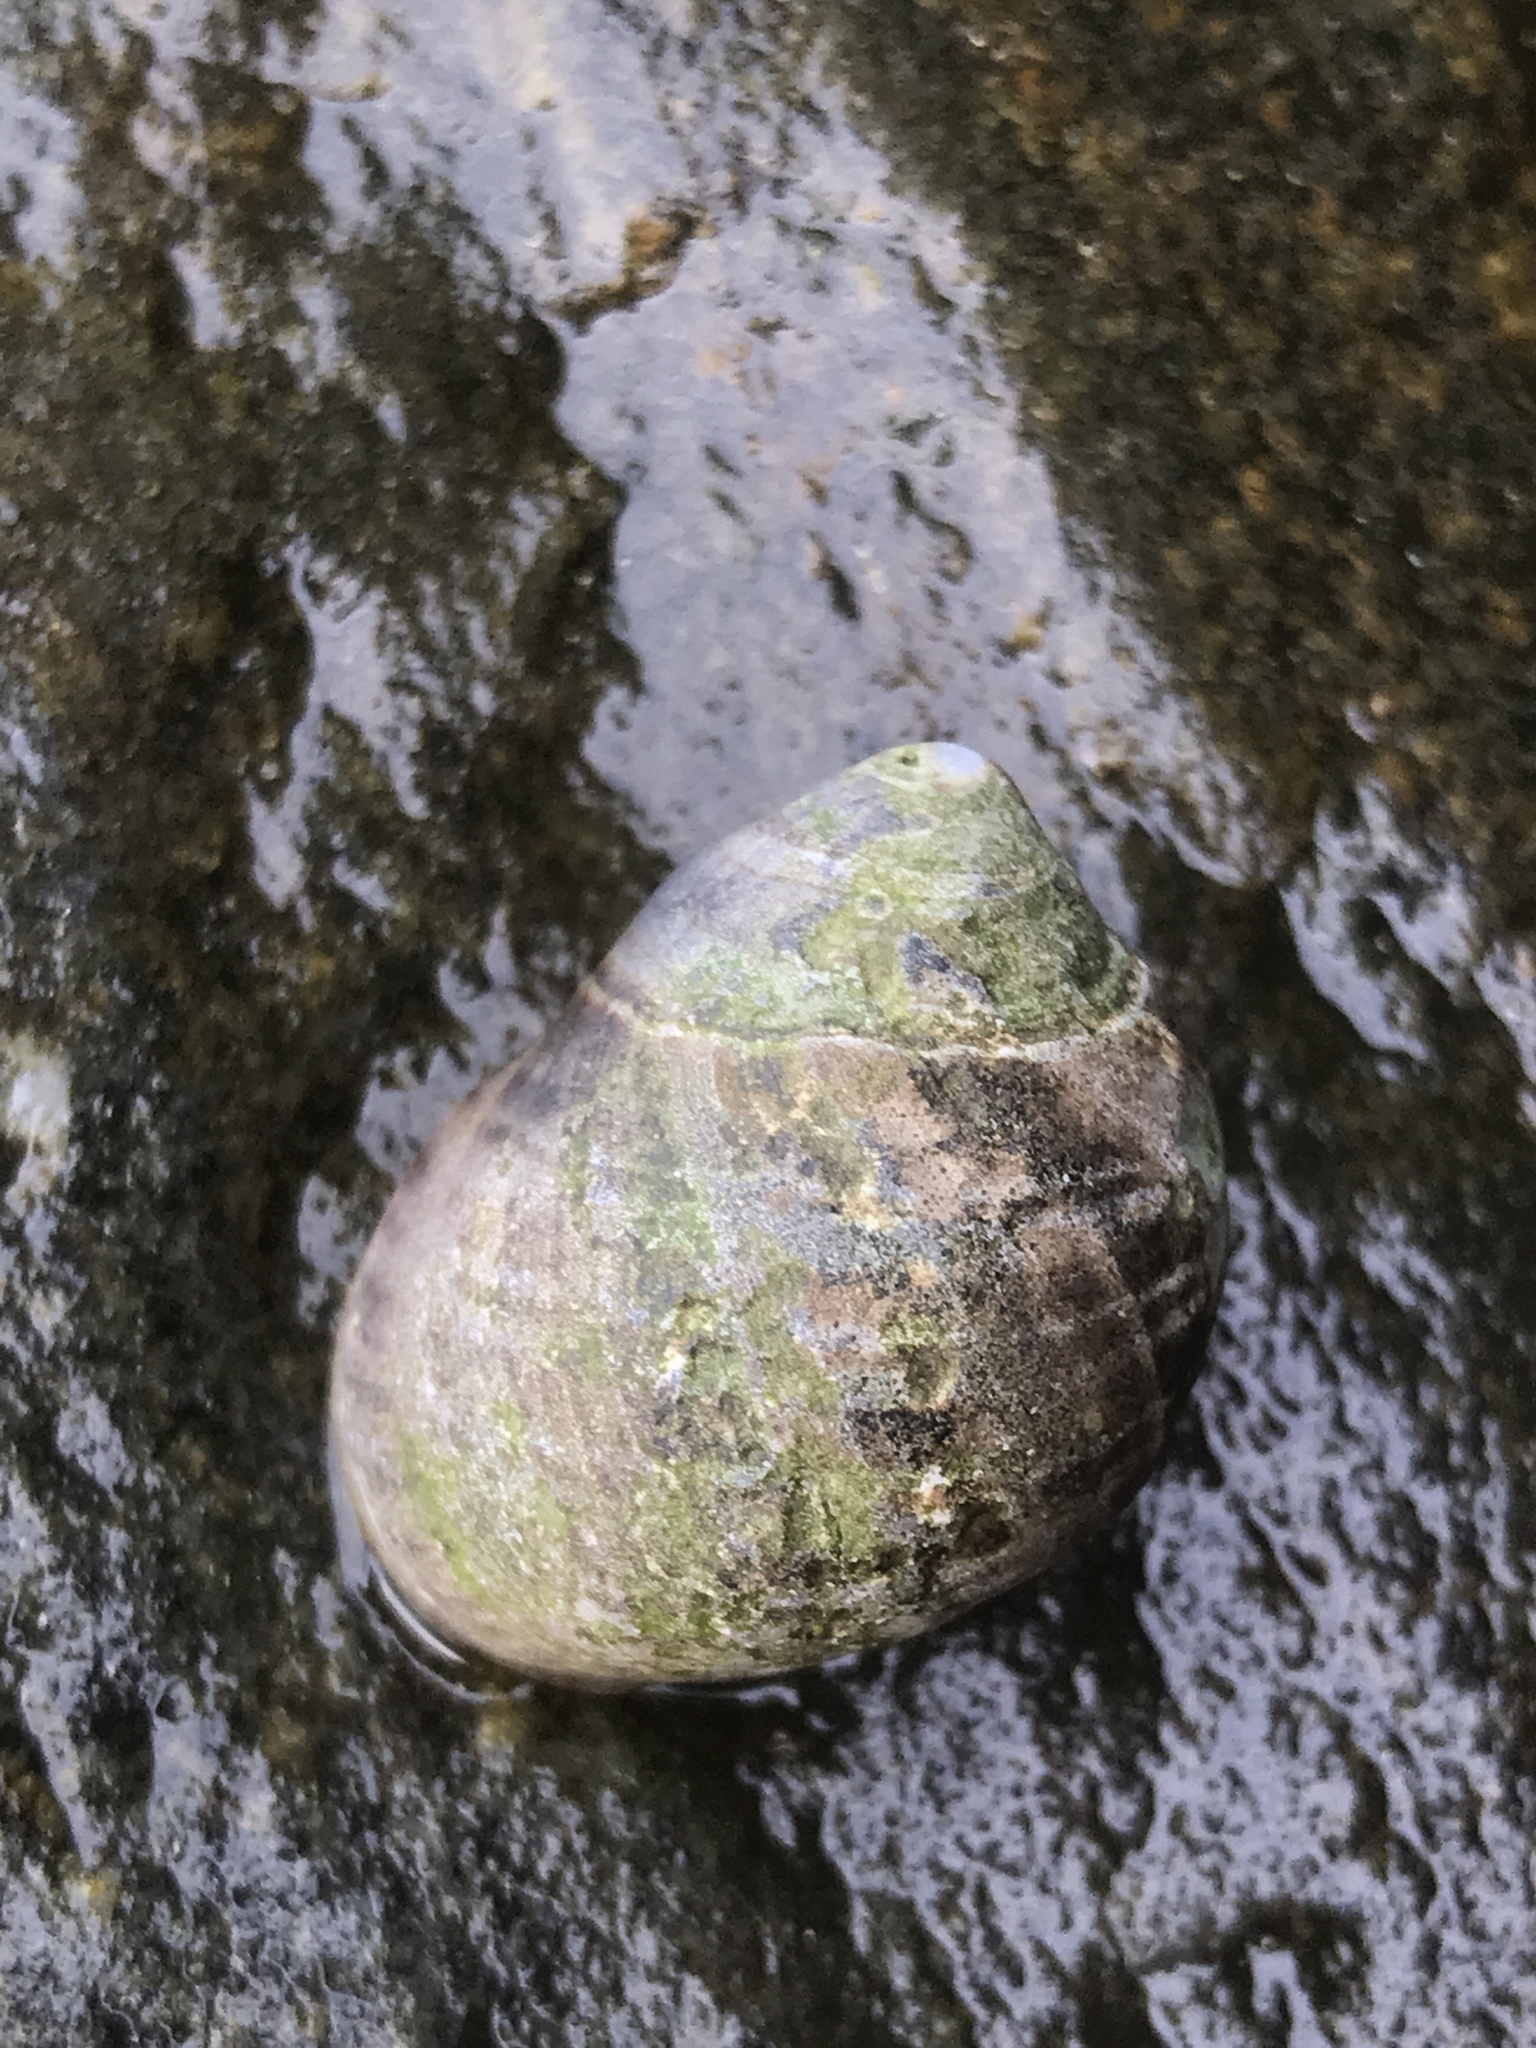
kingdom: Animalia
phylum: Mollusca
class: Gastropoda
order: Littorinimorpha
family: Littorinidae
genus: Littorina
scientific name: Littorina littorea
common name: Common periwinkle
